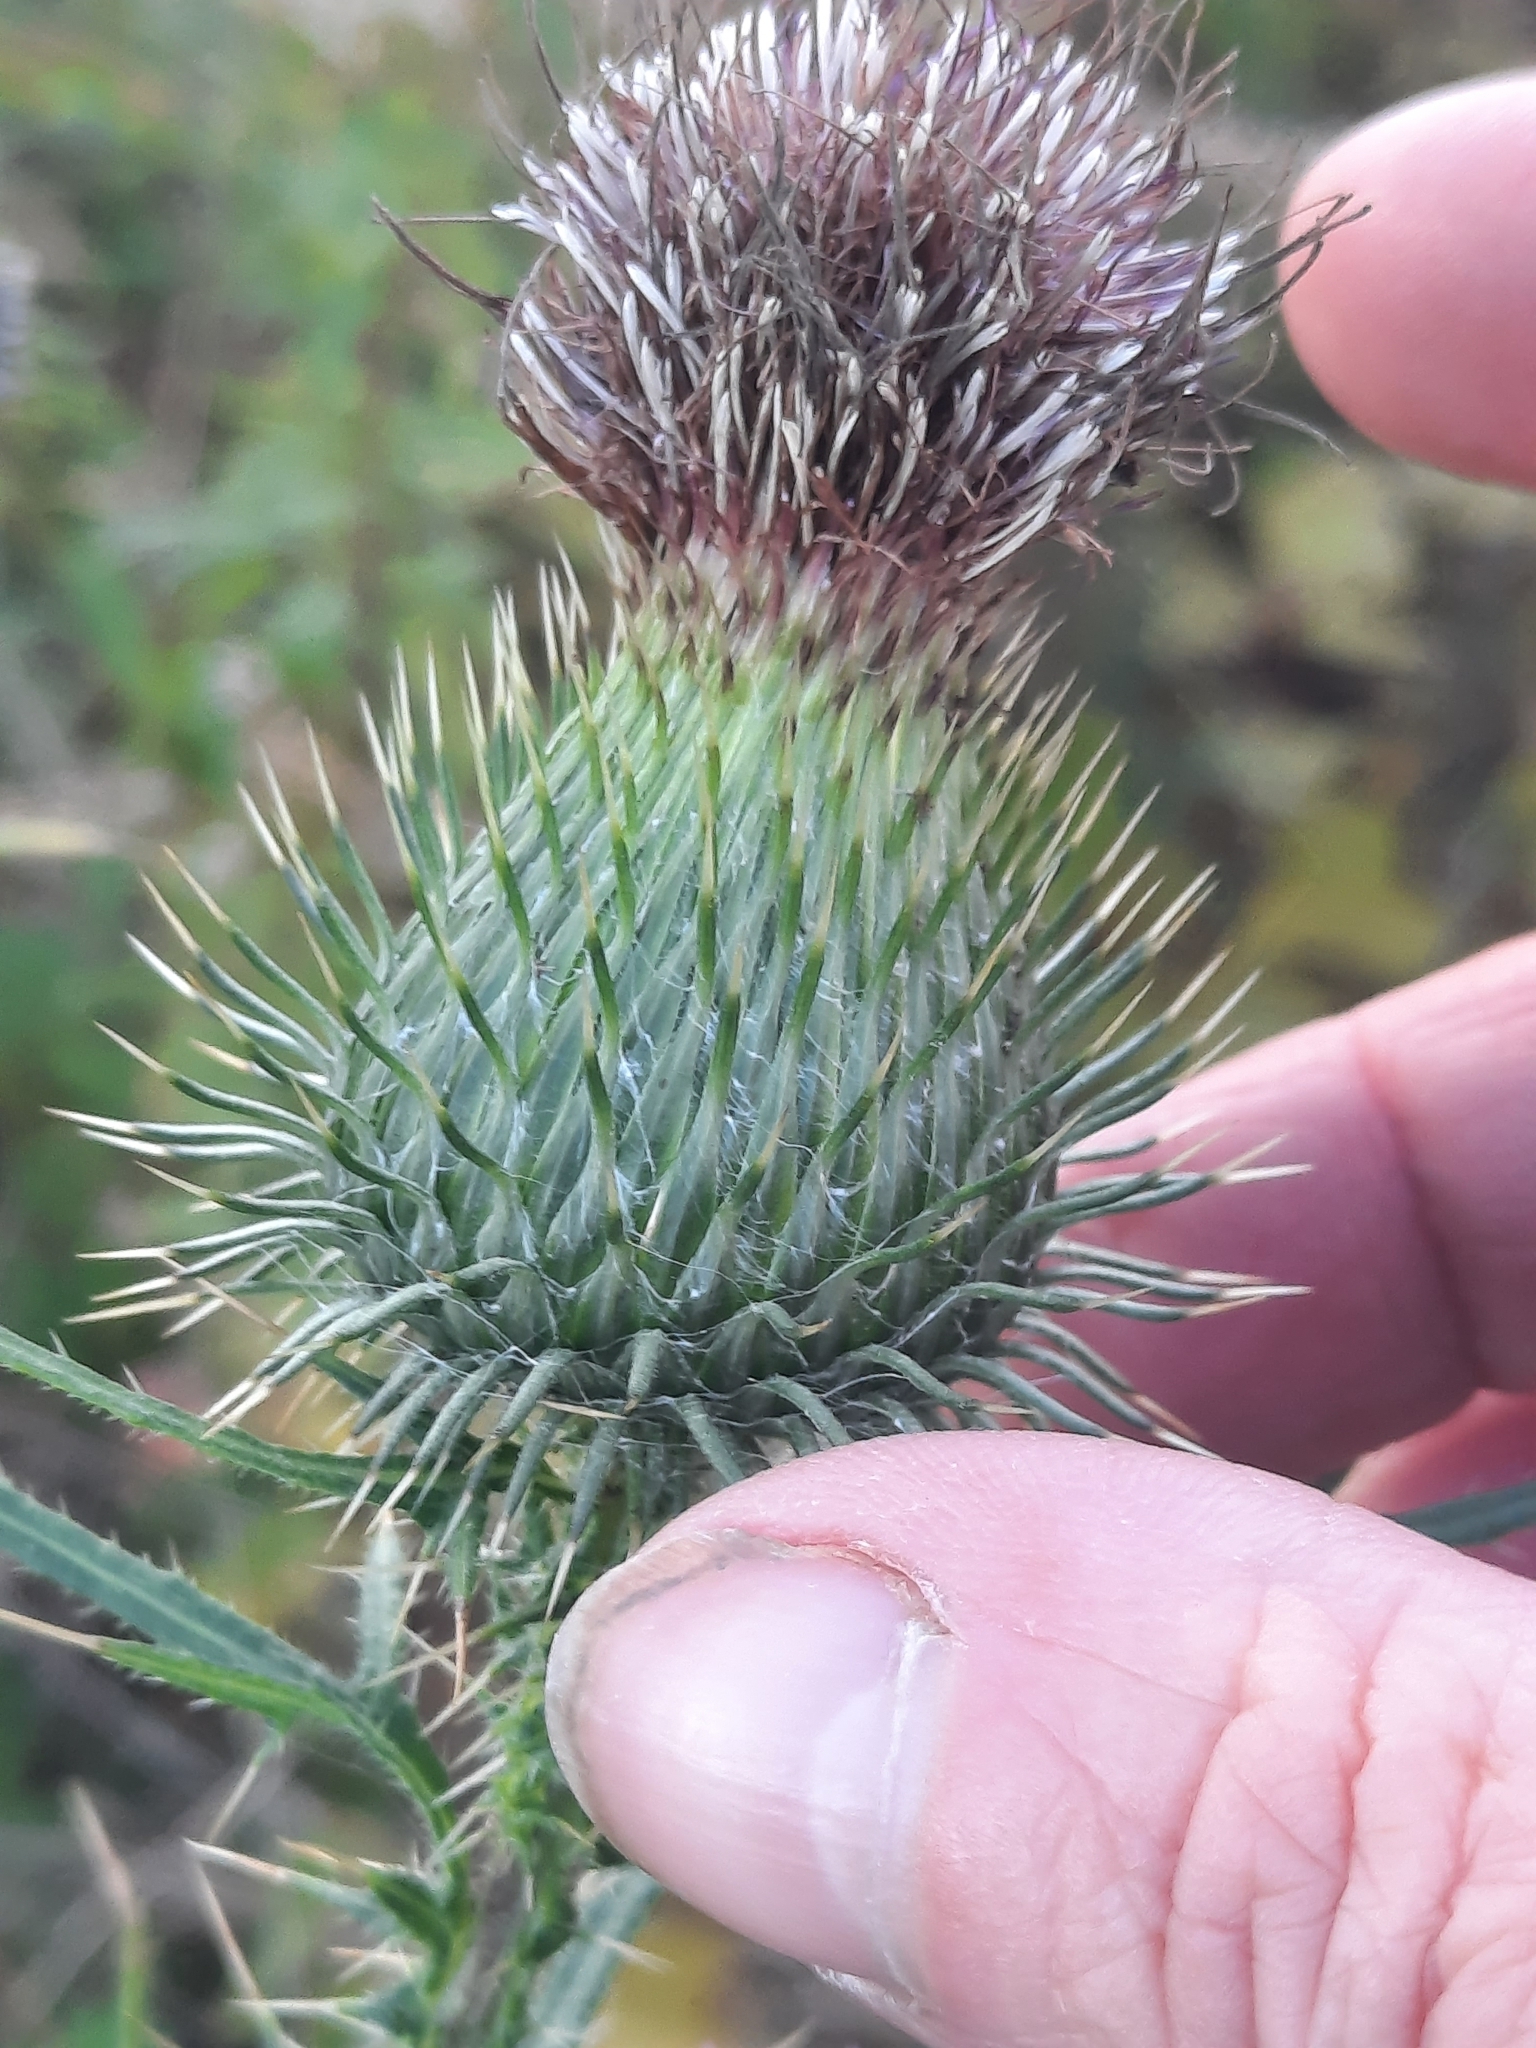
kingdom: Plantae
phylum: Tracheophyta
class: Magnoliopsida
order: Asterales
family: Asteraceae
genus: Cirsium
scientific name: Cirsium vulgare
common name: Bull thistle
